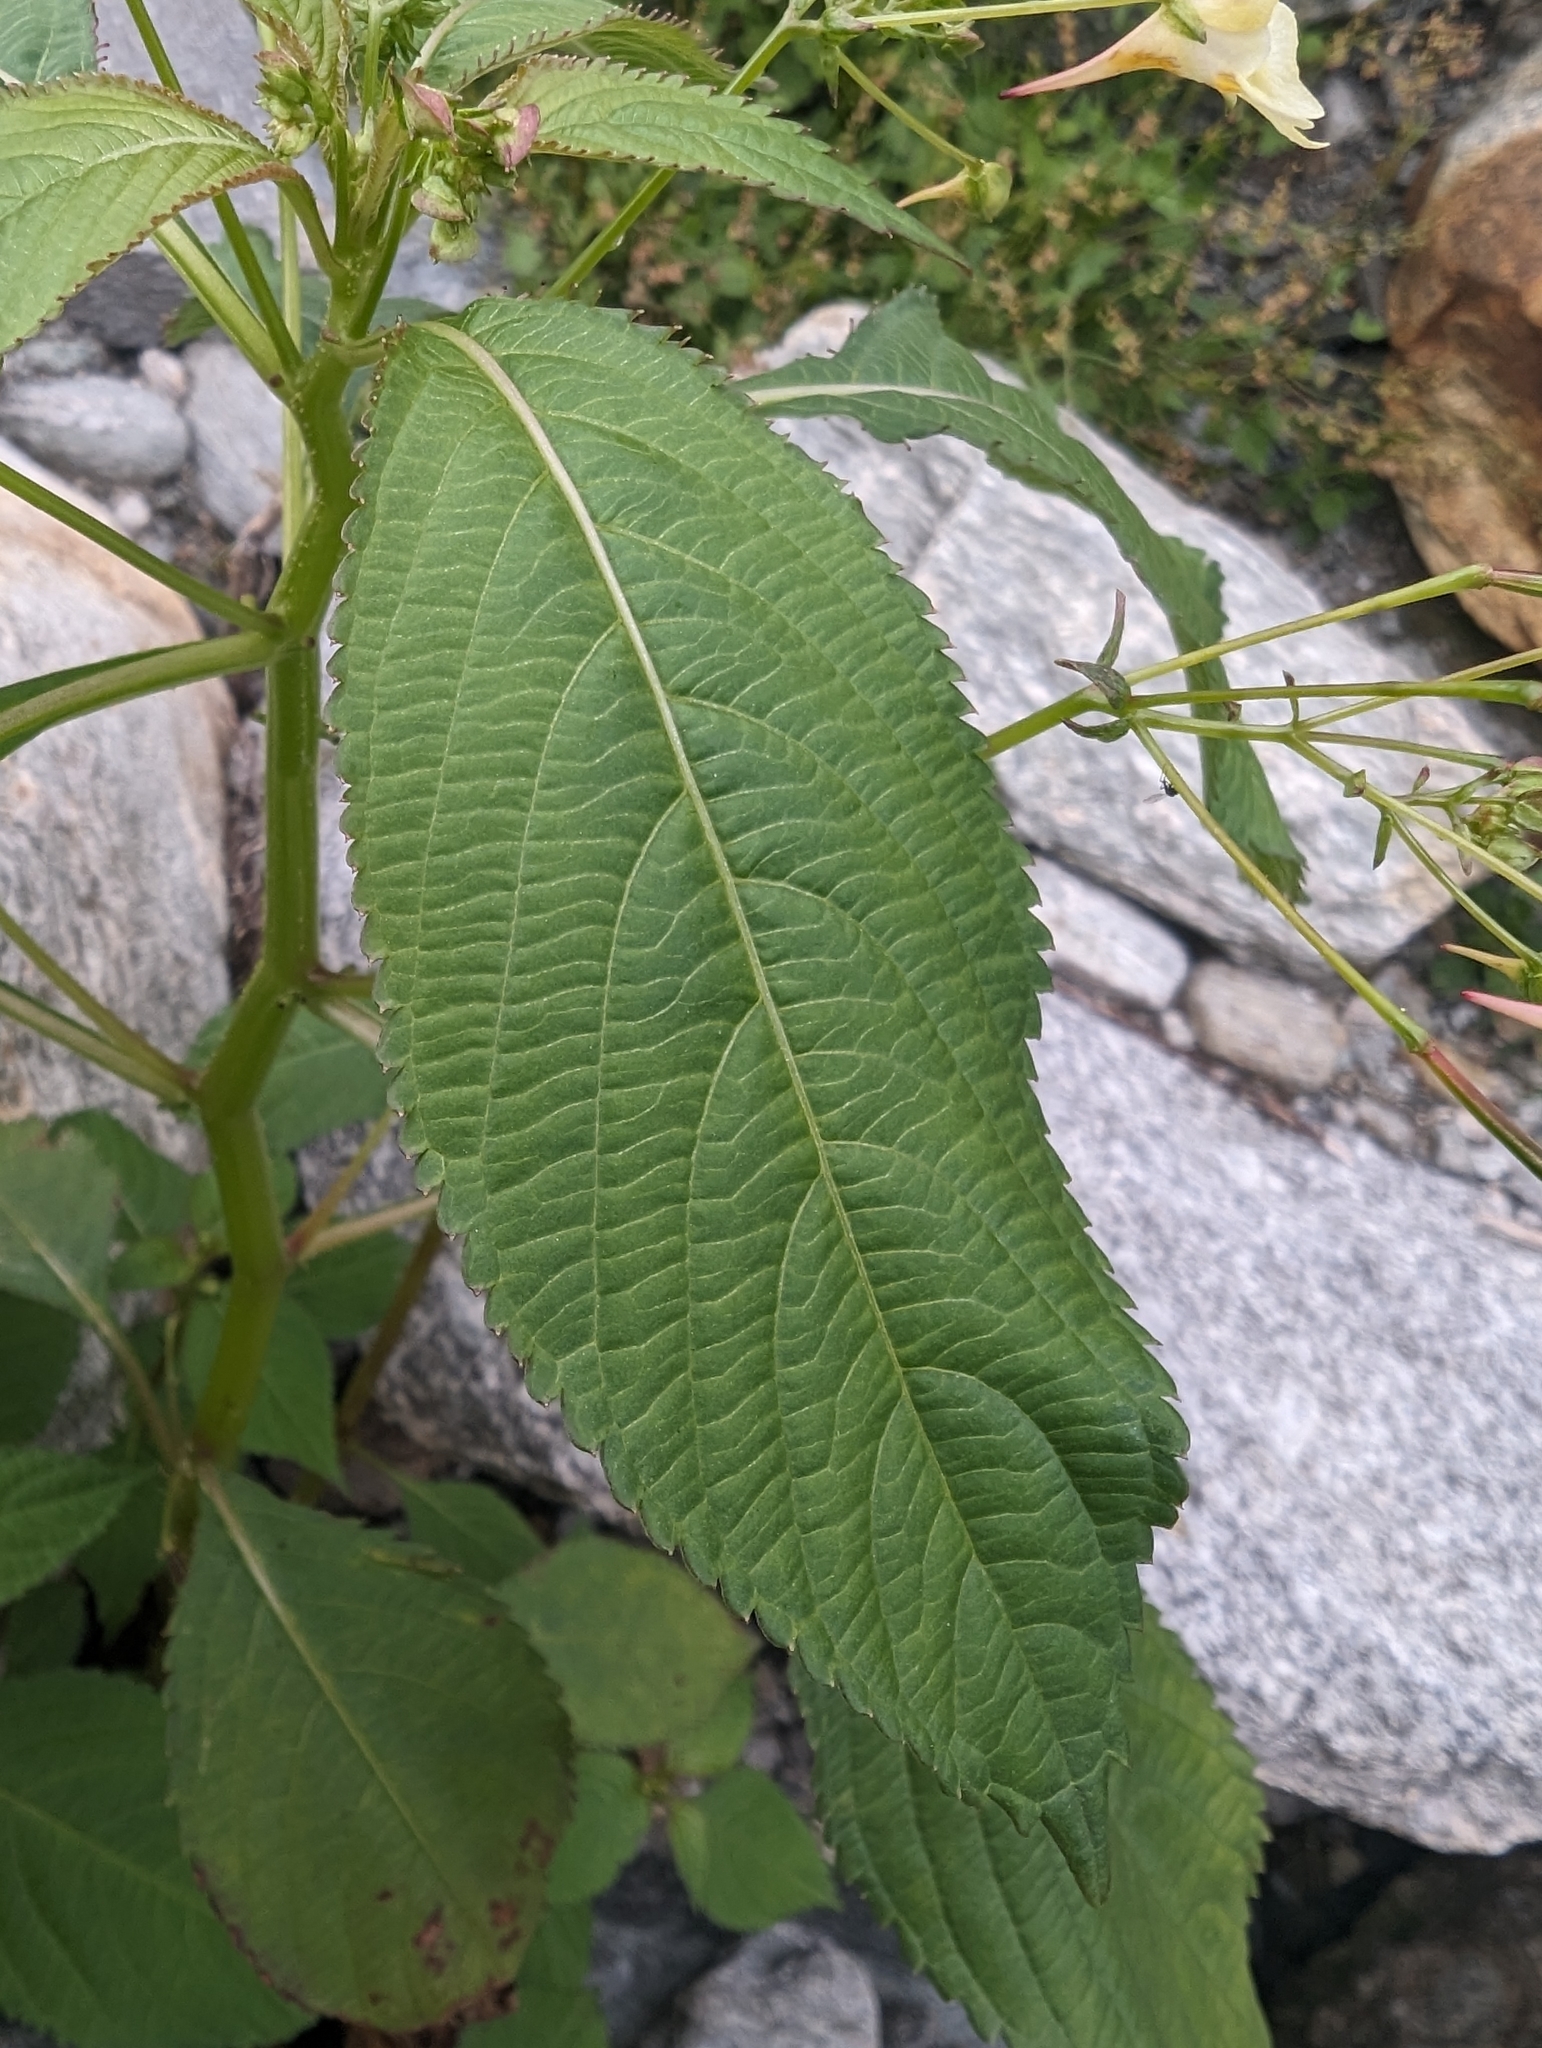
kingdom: Plantae
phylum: Tracheophyta
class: Magnoliopsida
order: Ericales
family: Balsaminaceae
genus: Impatiens
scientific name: Impatiens parviflora
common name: Small balsam
